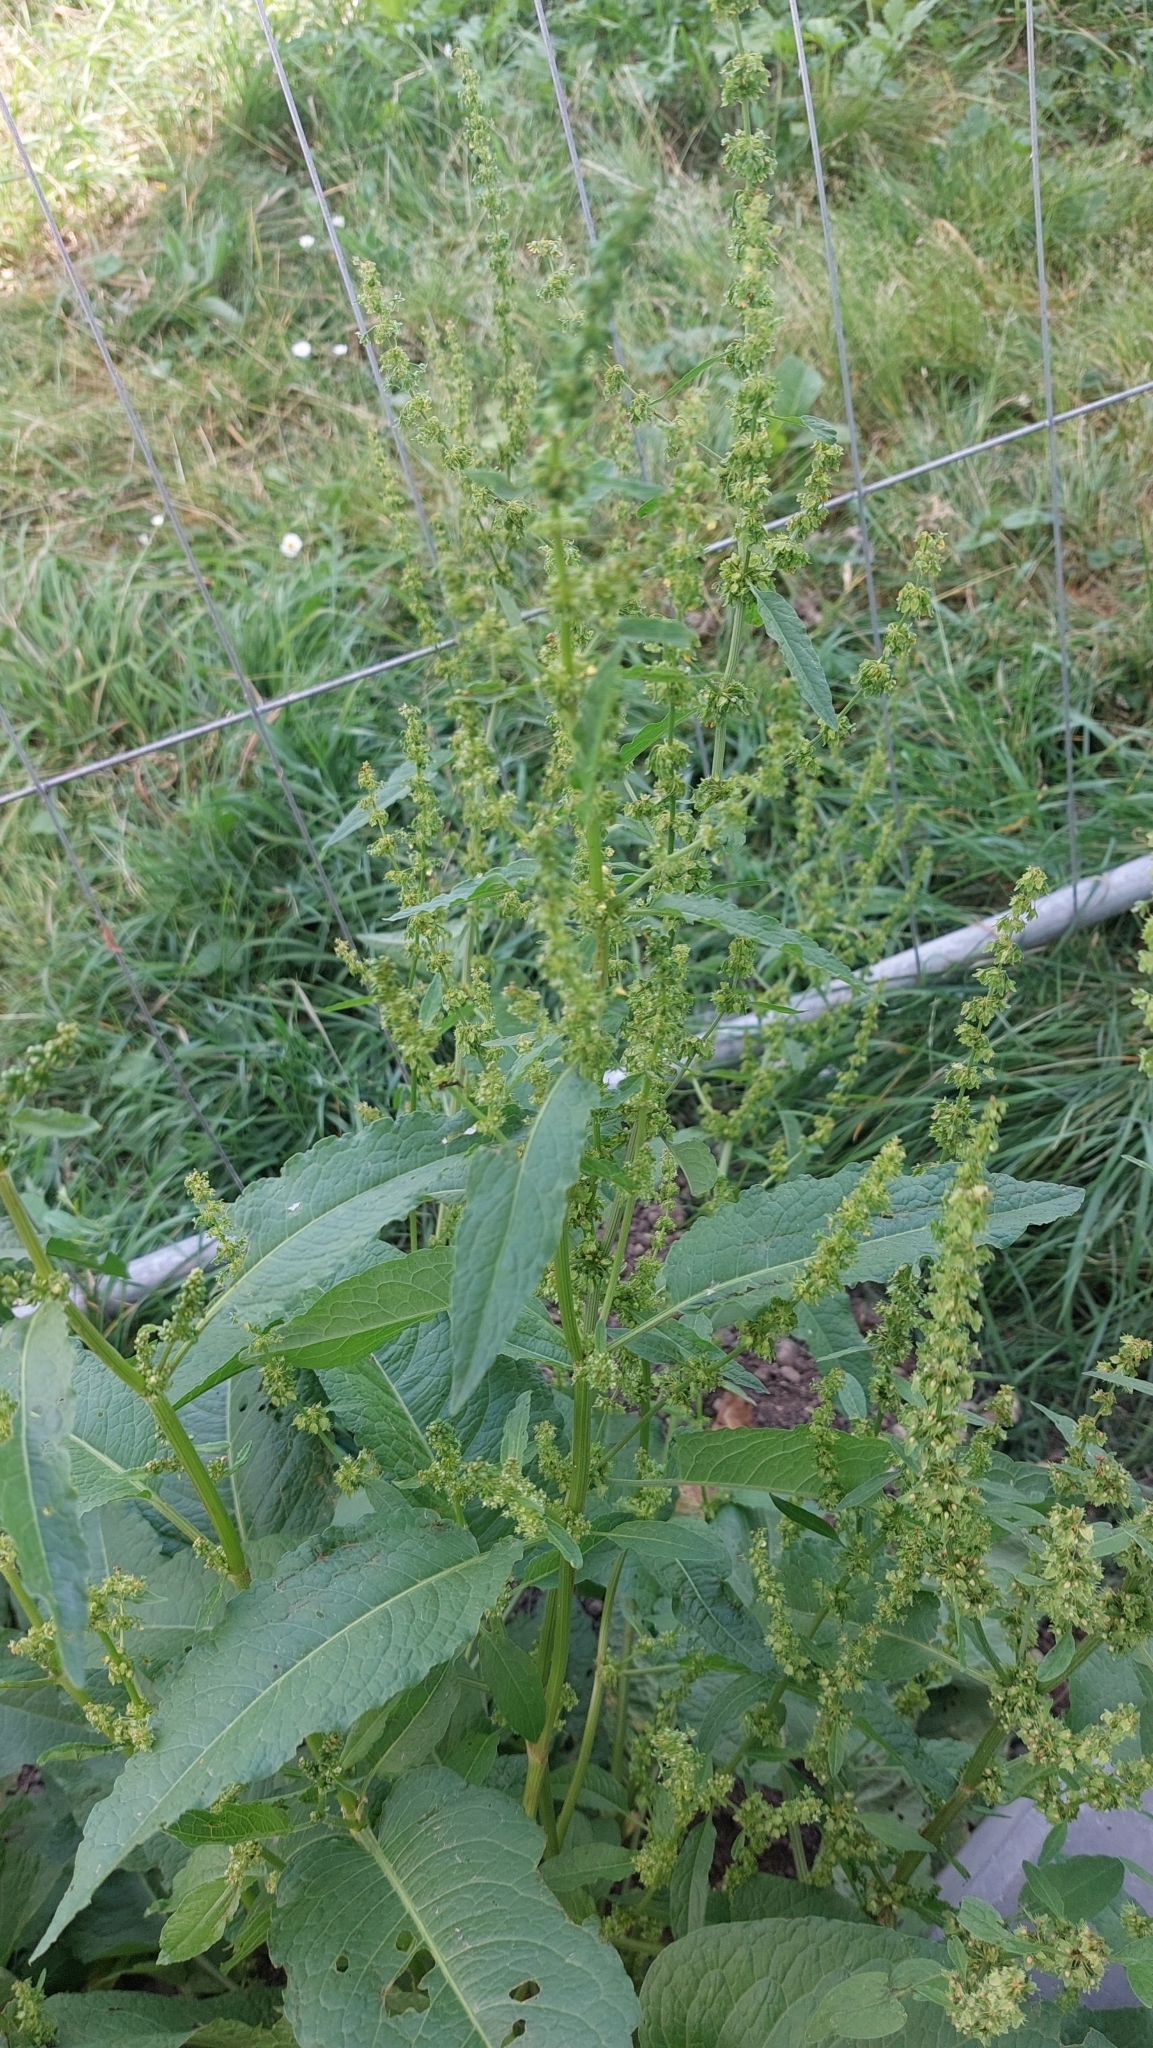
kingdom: Plantae
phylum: Tracheophyta
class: Magnoliopsida
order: Caryophyllales
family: Polygonaceae
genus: Rumex
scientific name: Rumex obtusifolius
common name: Bitter dock
